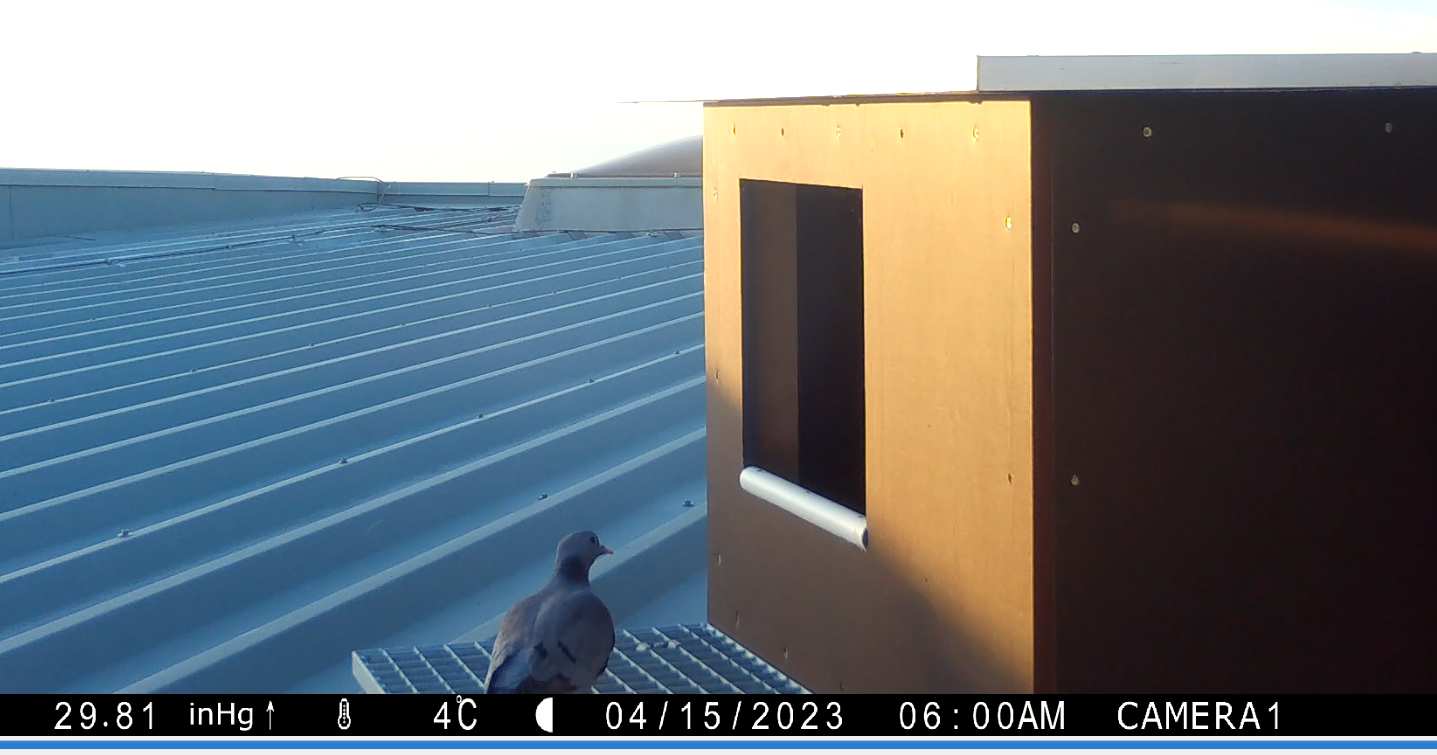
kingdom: Animalia
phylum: Chordata
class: Aves
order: Columbiformes
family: Columbidae
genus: Columba
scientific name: Columba oenas
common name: Stock dove
